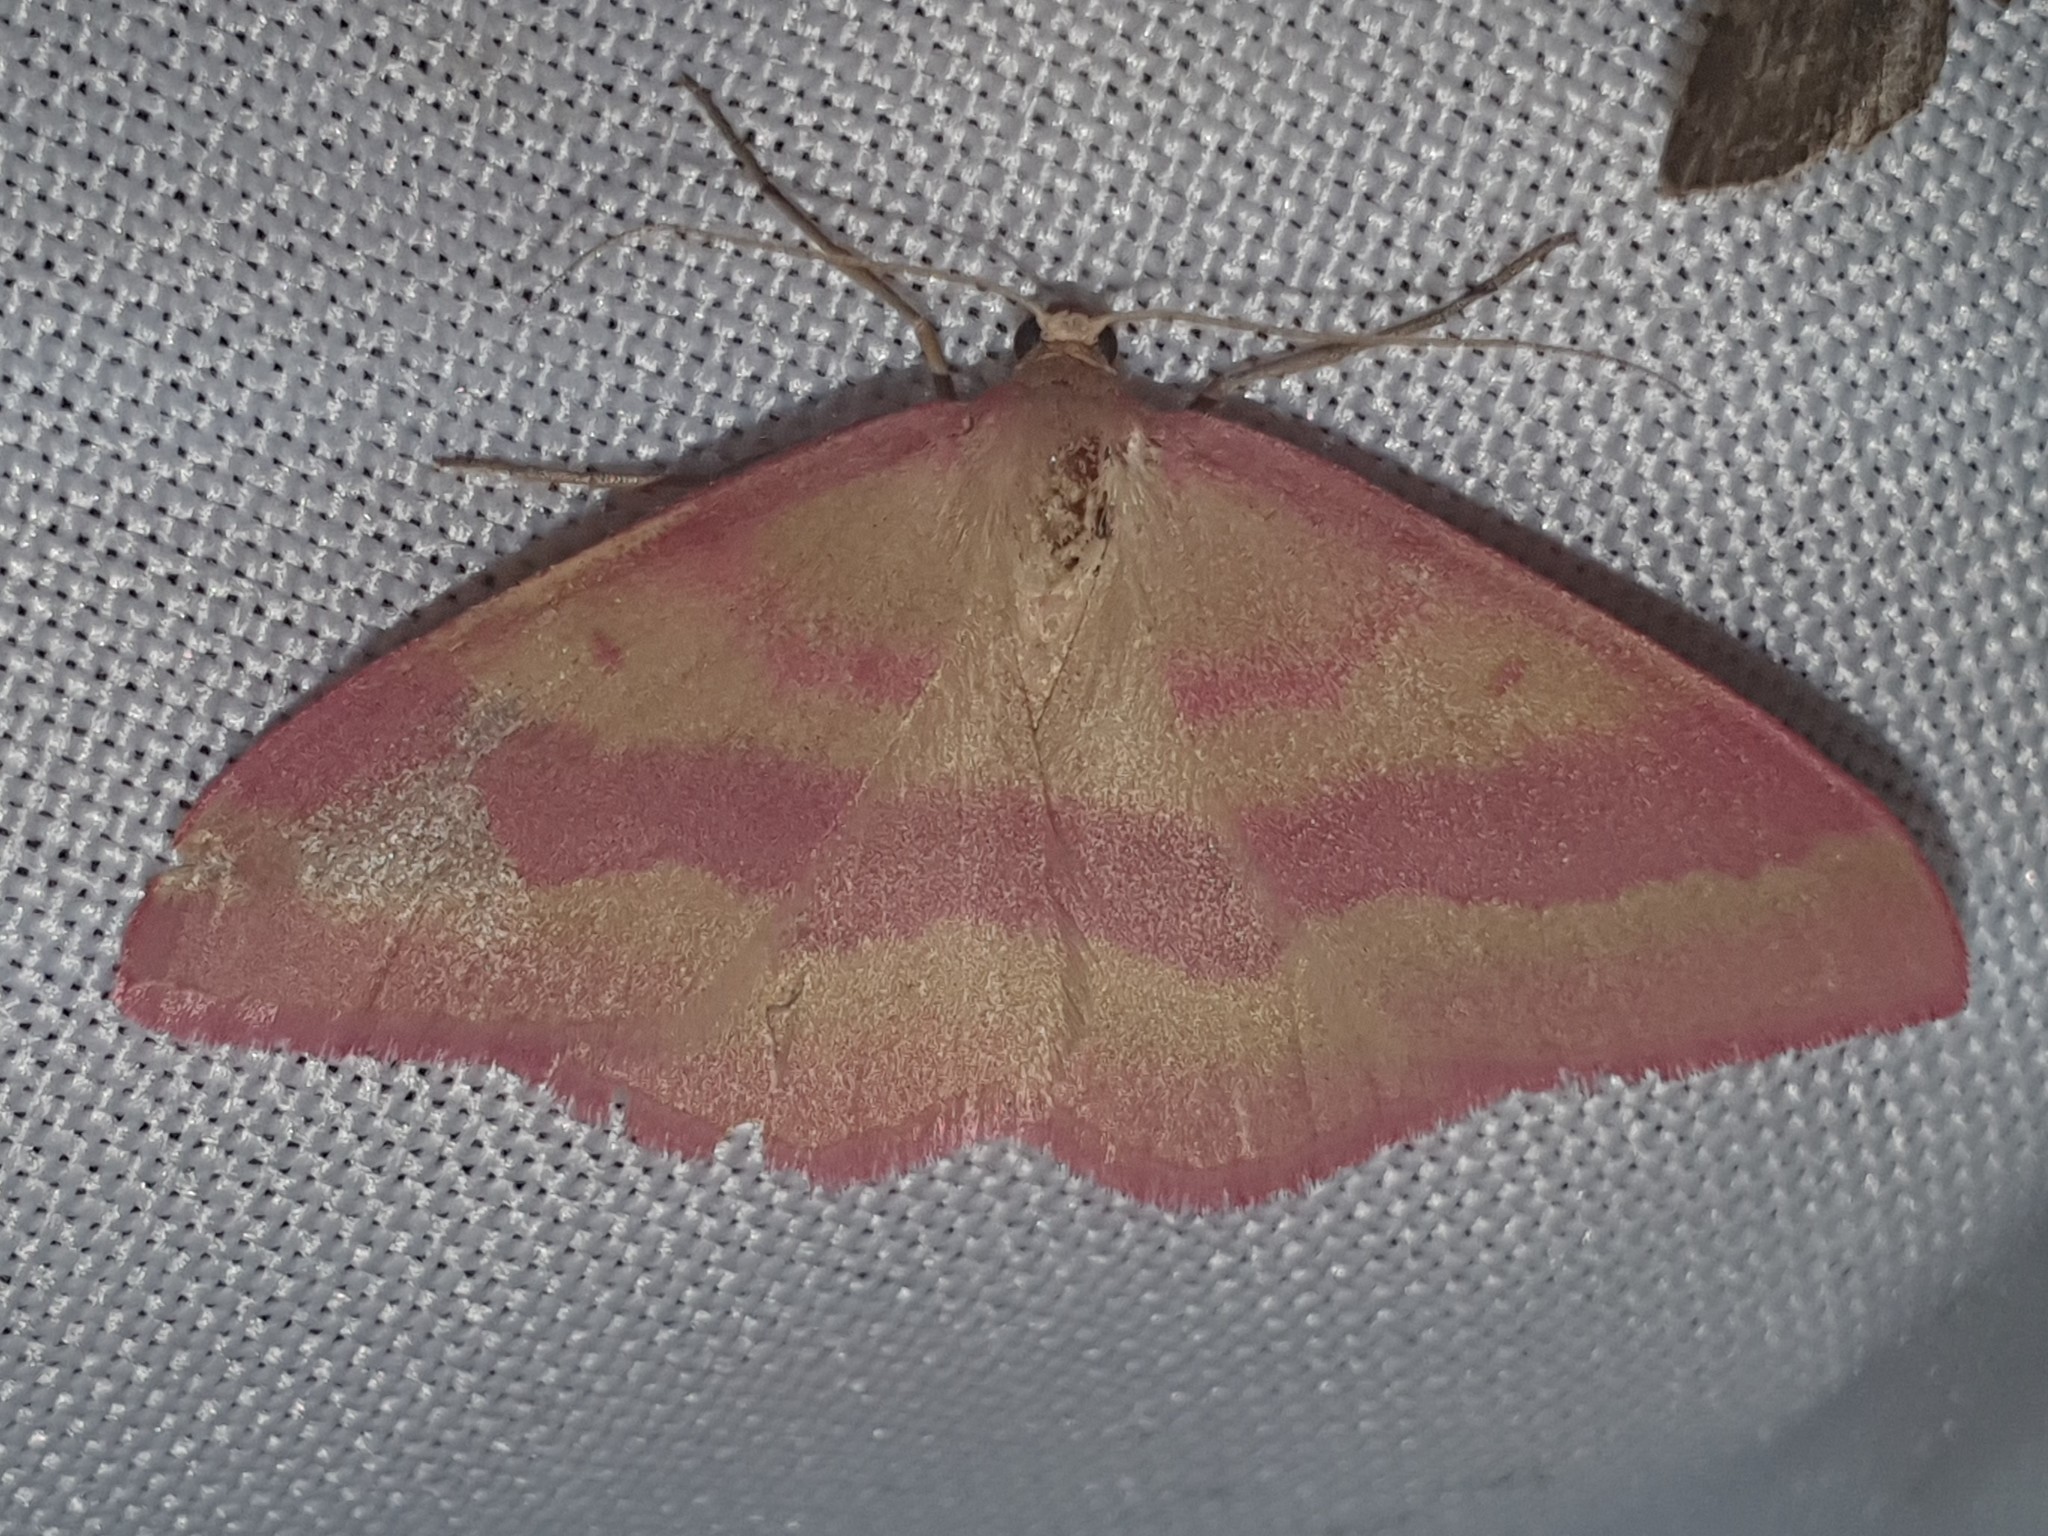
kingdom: Animalia
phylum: Arthropoda
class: Insecta
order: Lepidoptera
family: Geometridae
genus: Rhodostrophia
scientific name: Rhodostrophia calabra
